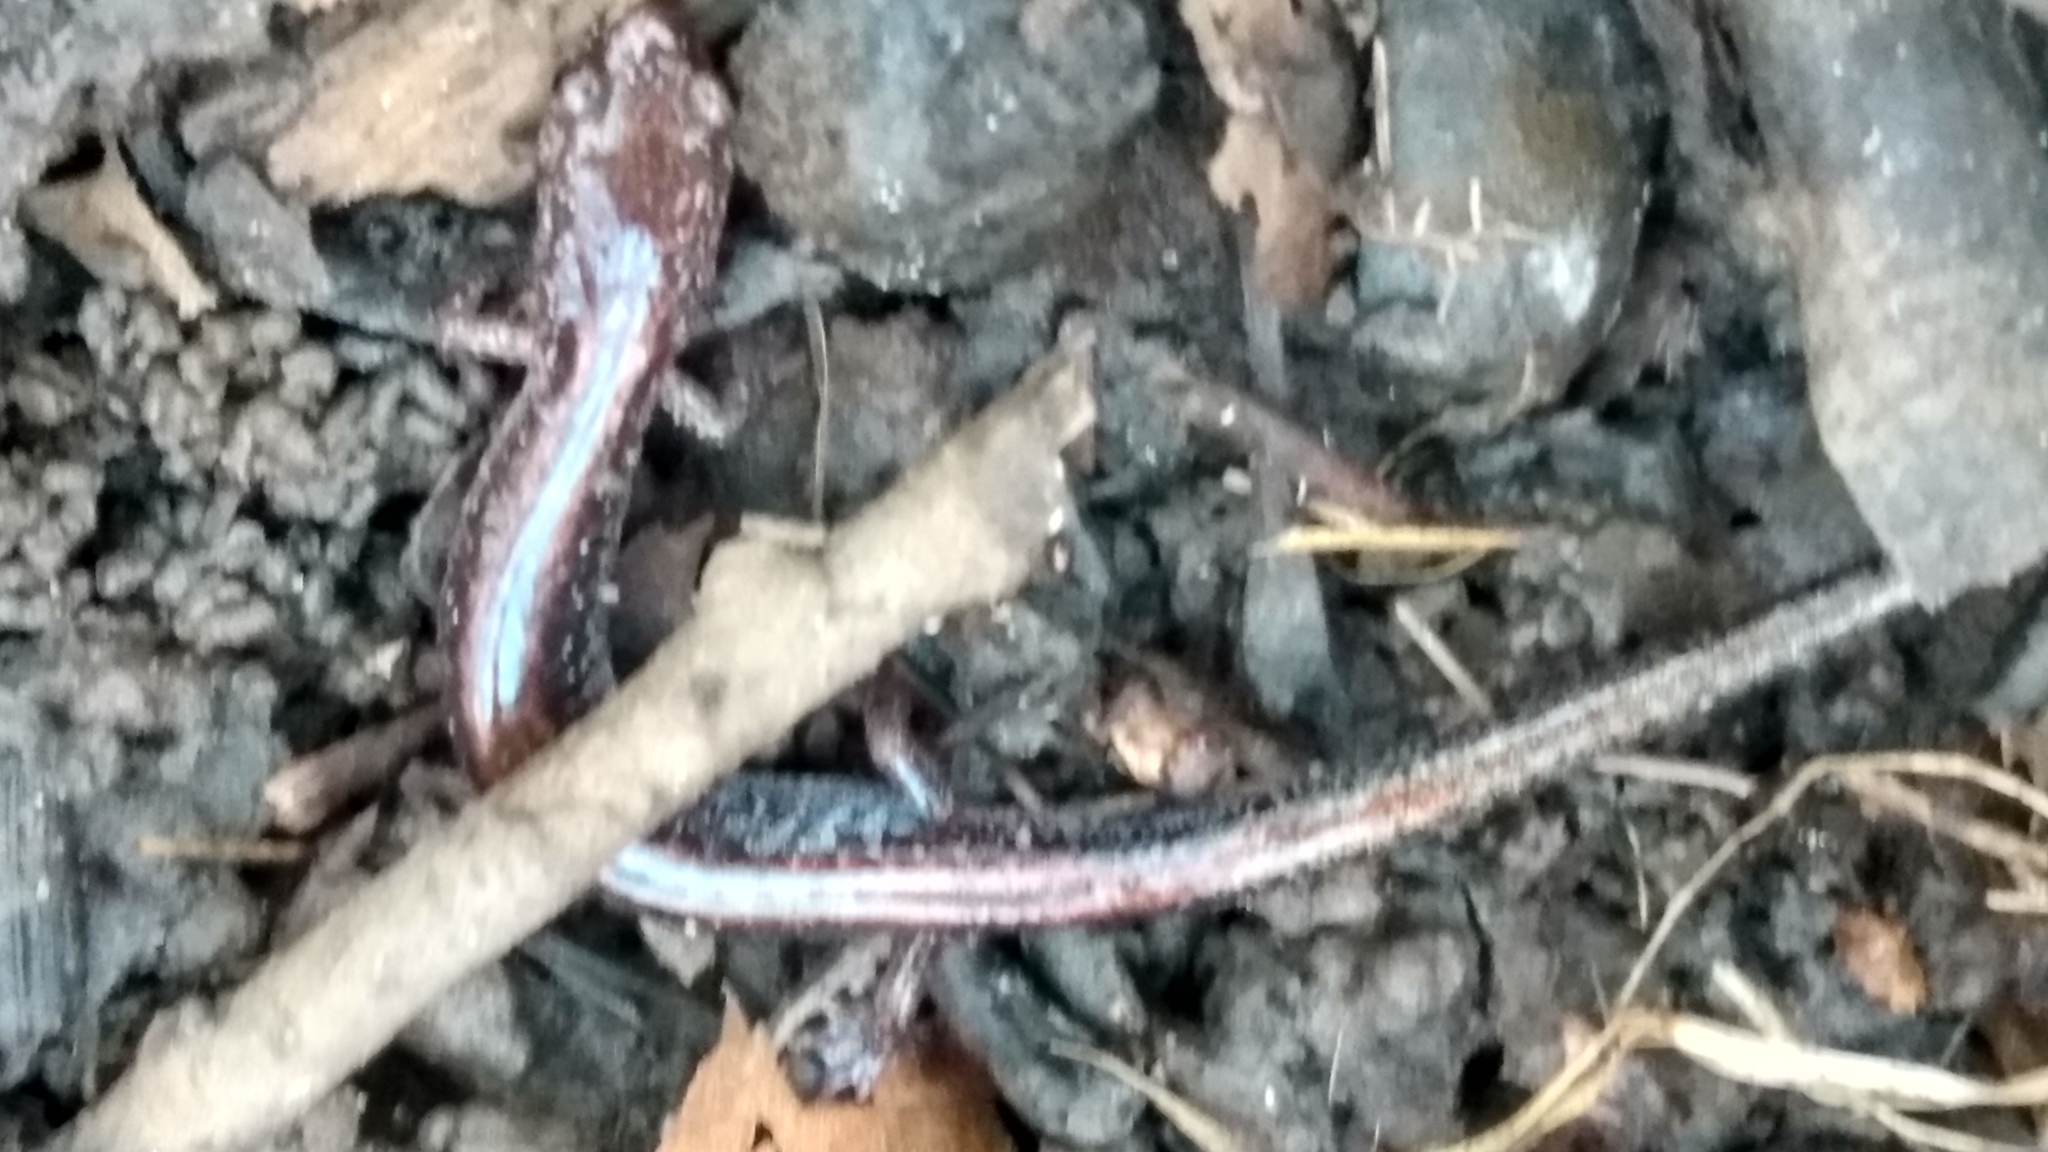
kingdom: Animalia
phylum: Chordata
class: Amphibia
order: Caudata
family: Plethodontidae
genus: Plethodon
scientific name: Plethodon cinereus
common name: Redback salamander
